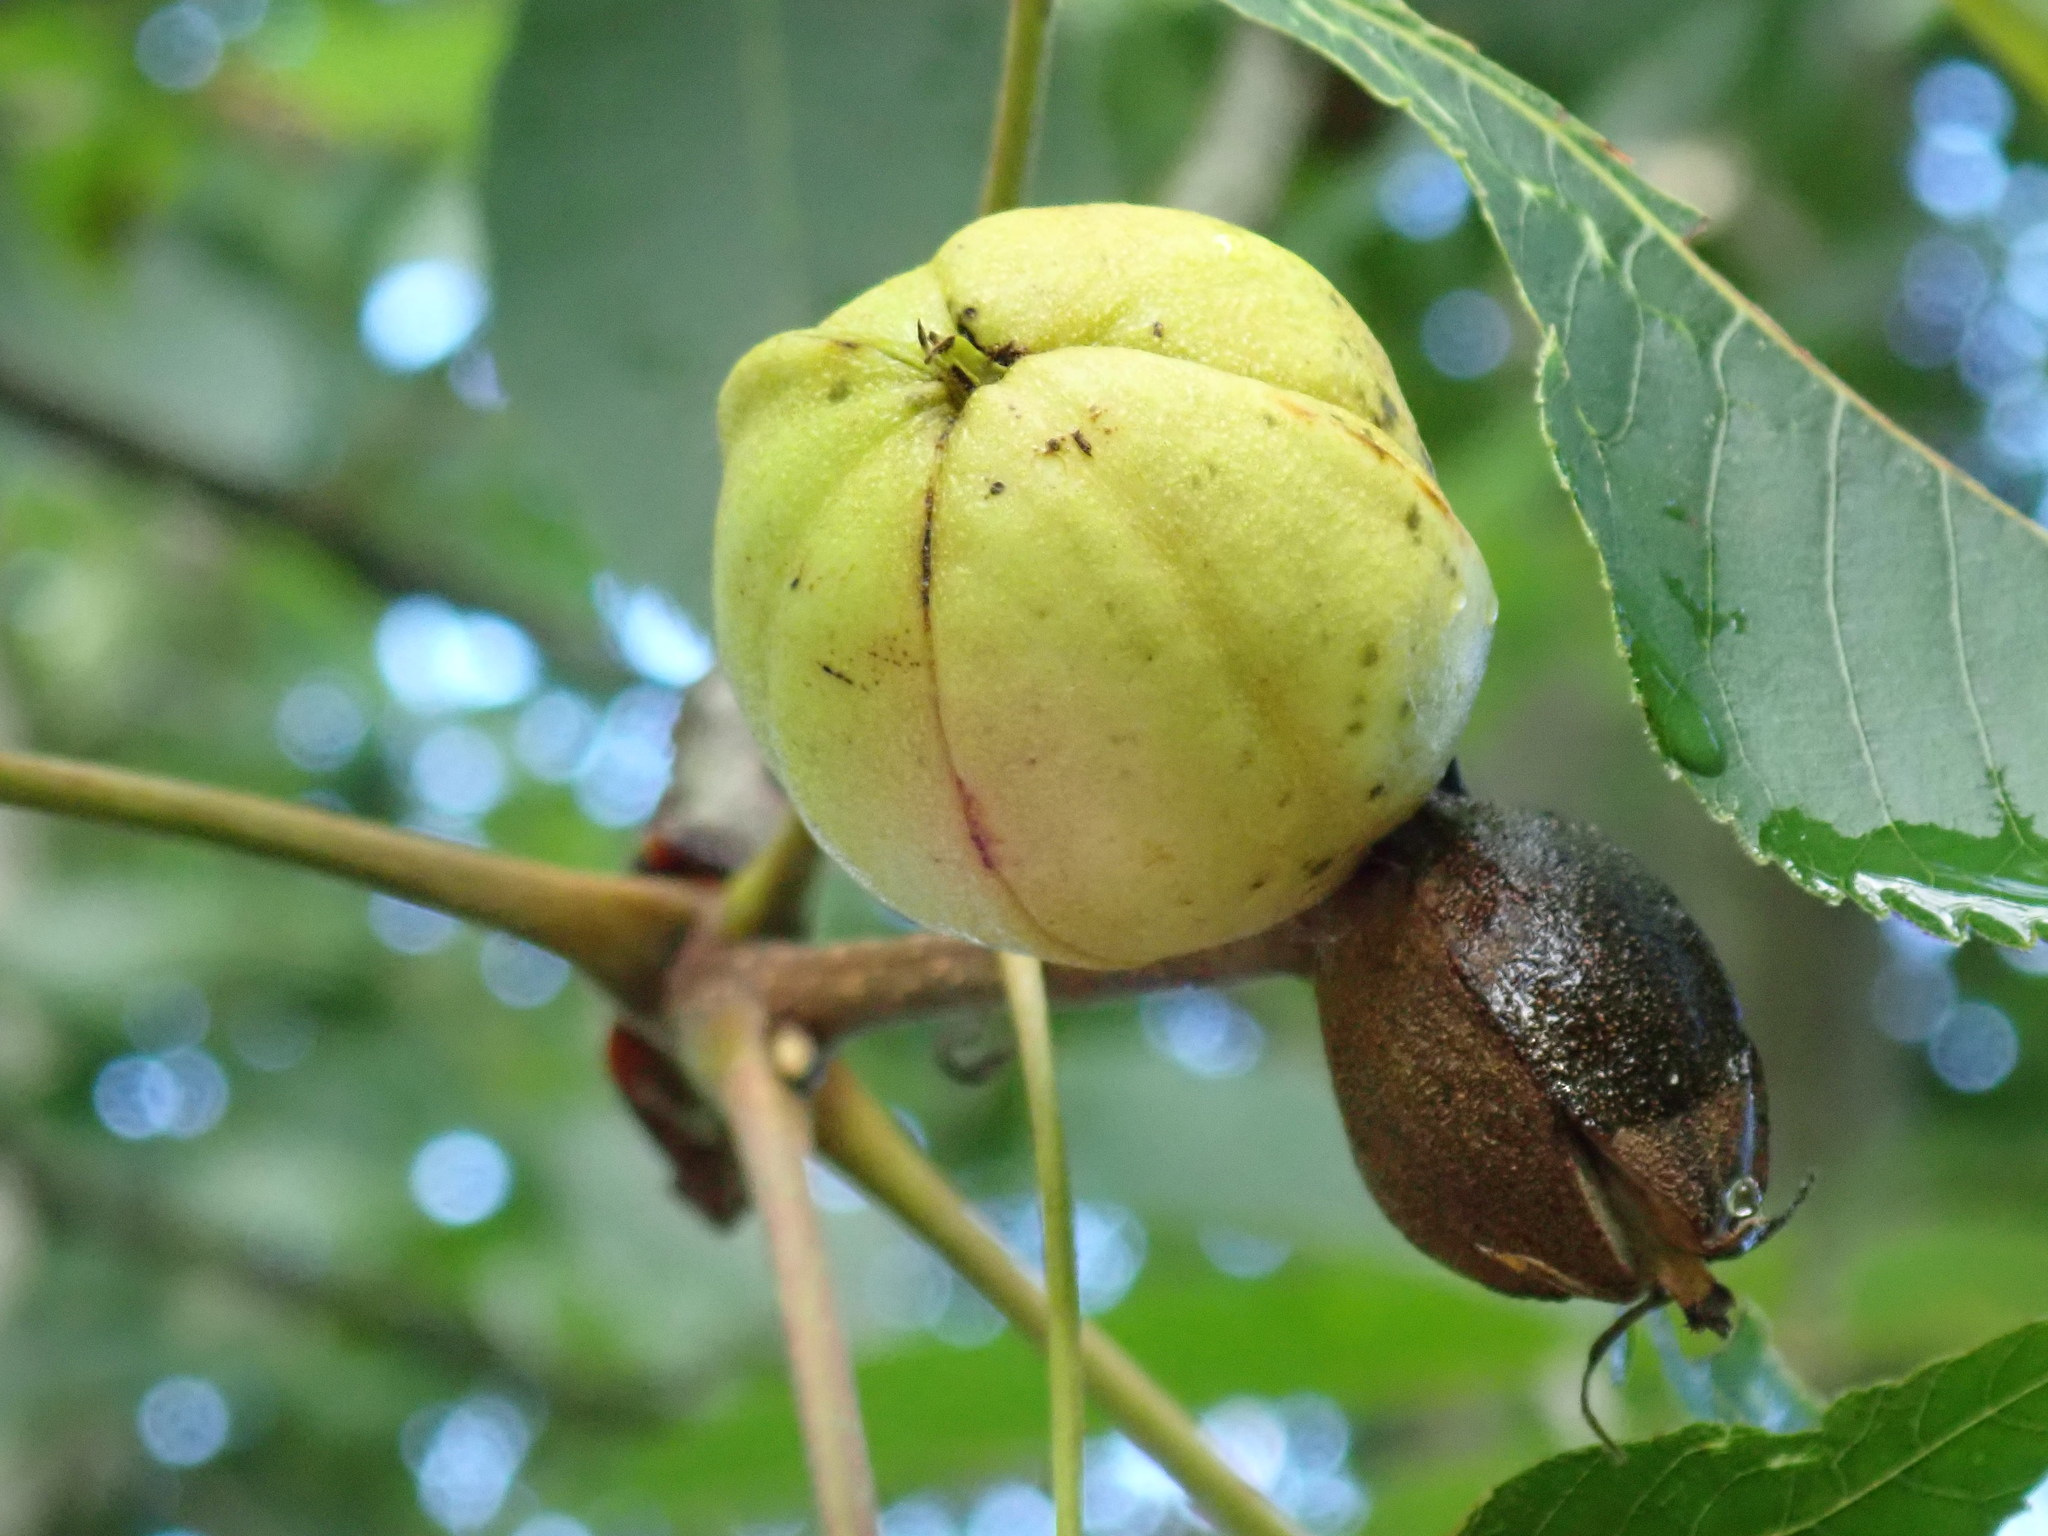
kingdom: Plantae
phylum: Tracheophyta
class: Magnoliopsida
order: Fagales
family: Juglandaceae
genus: Carya
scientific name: Carya ovata
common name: Shagbark hickory
